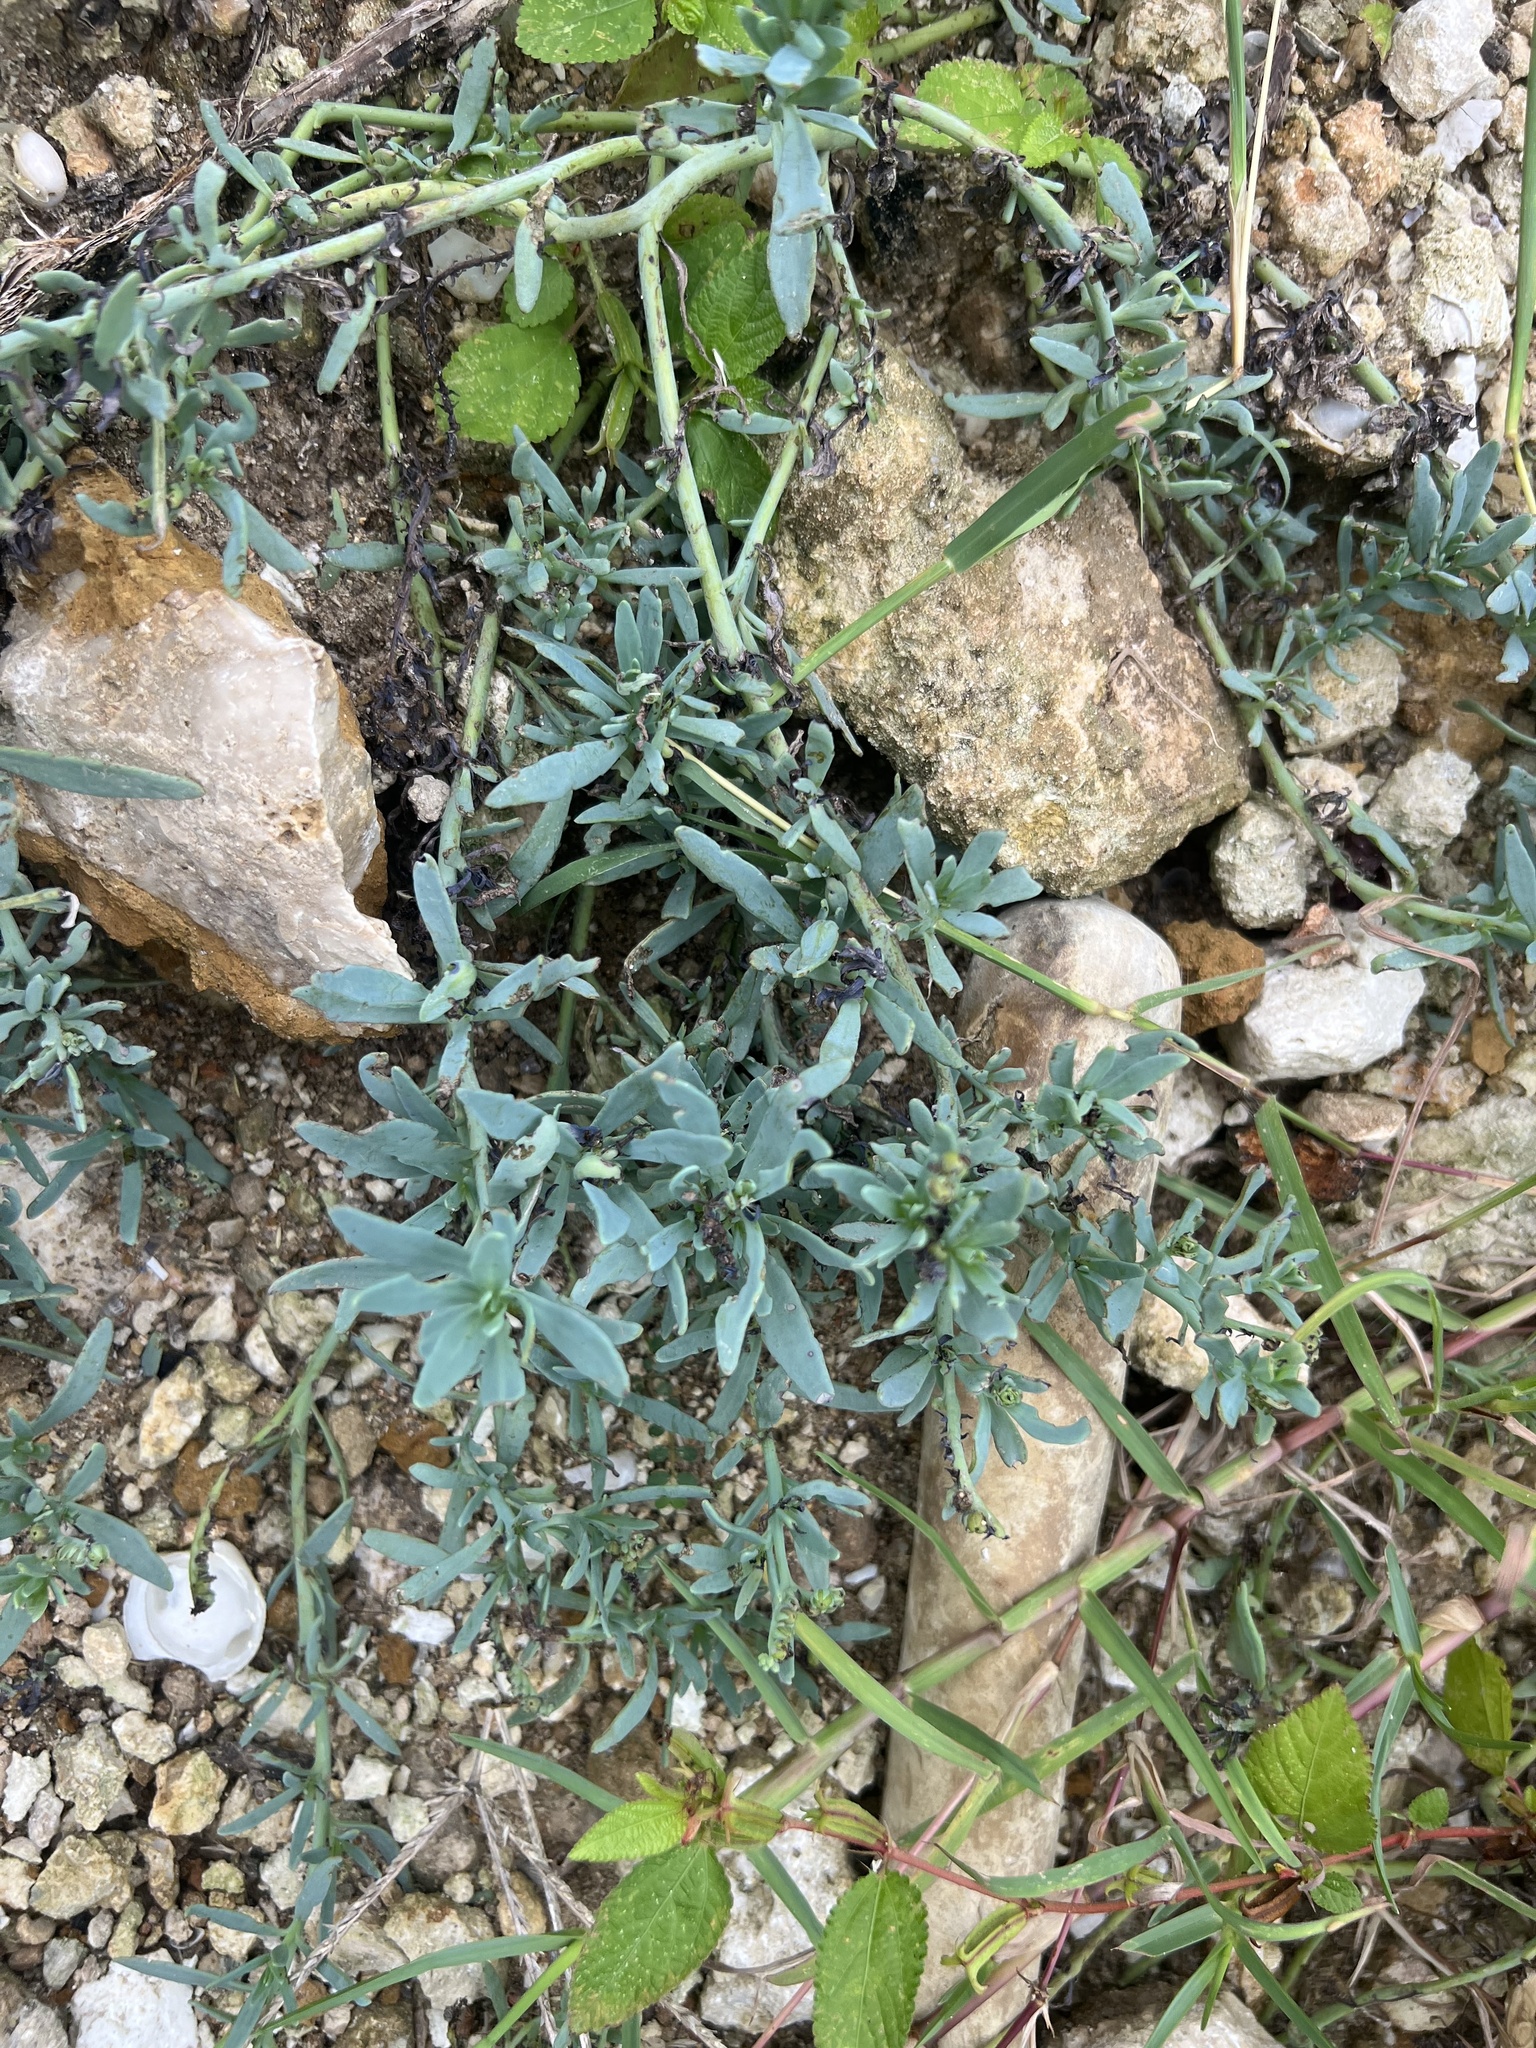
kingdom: Plantae
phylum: Tracheophyta
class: Magnoliopsida
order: Boraginales
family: Heliotropiaceae
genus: Heliotropium
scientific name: Heliotropium curassavicum
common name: Seaside heliotrope
